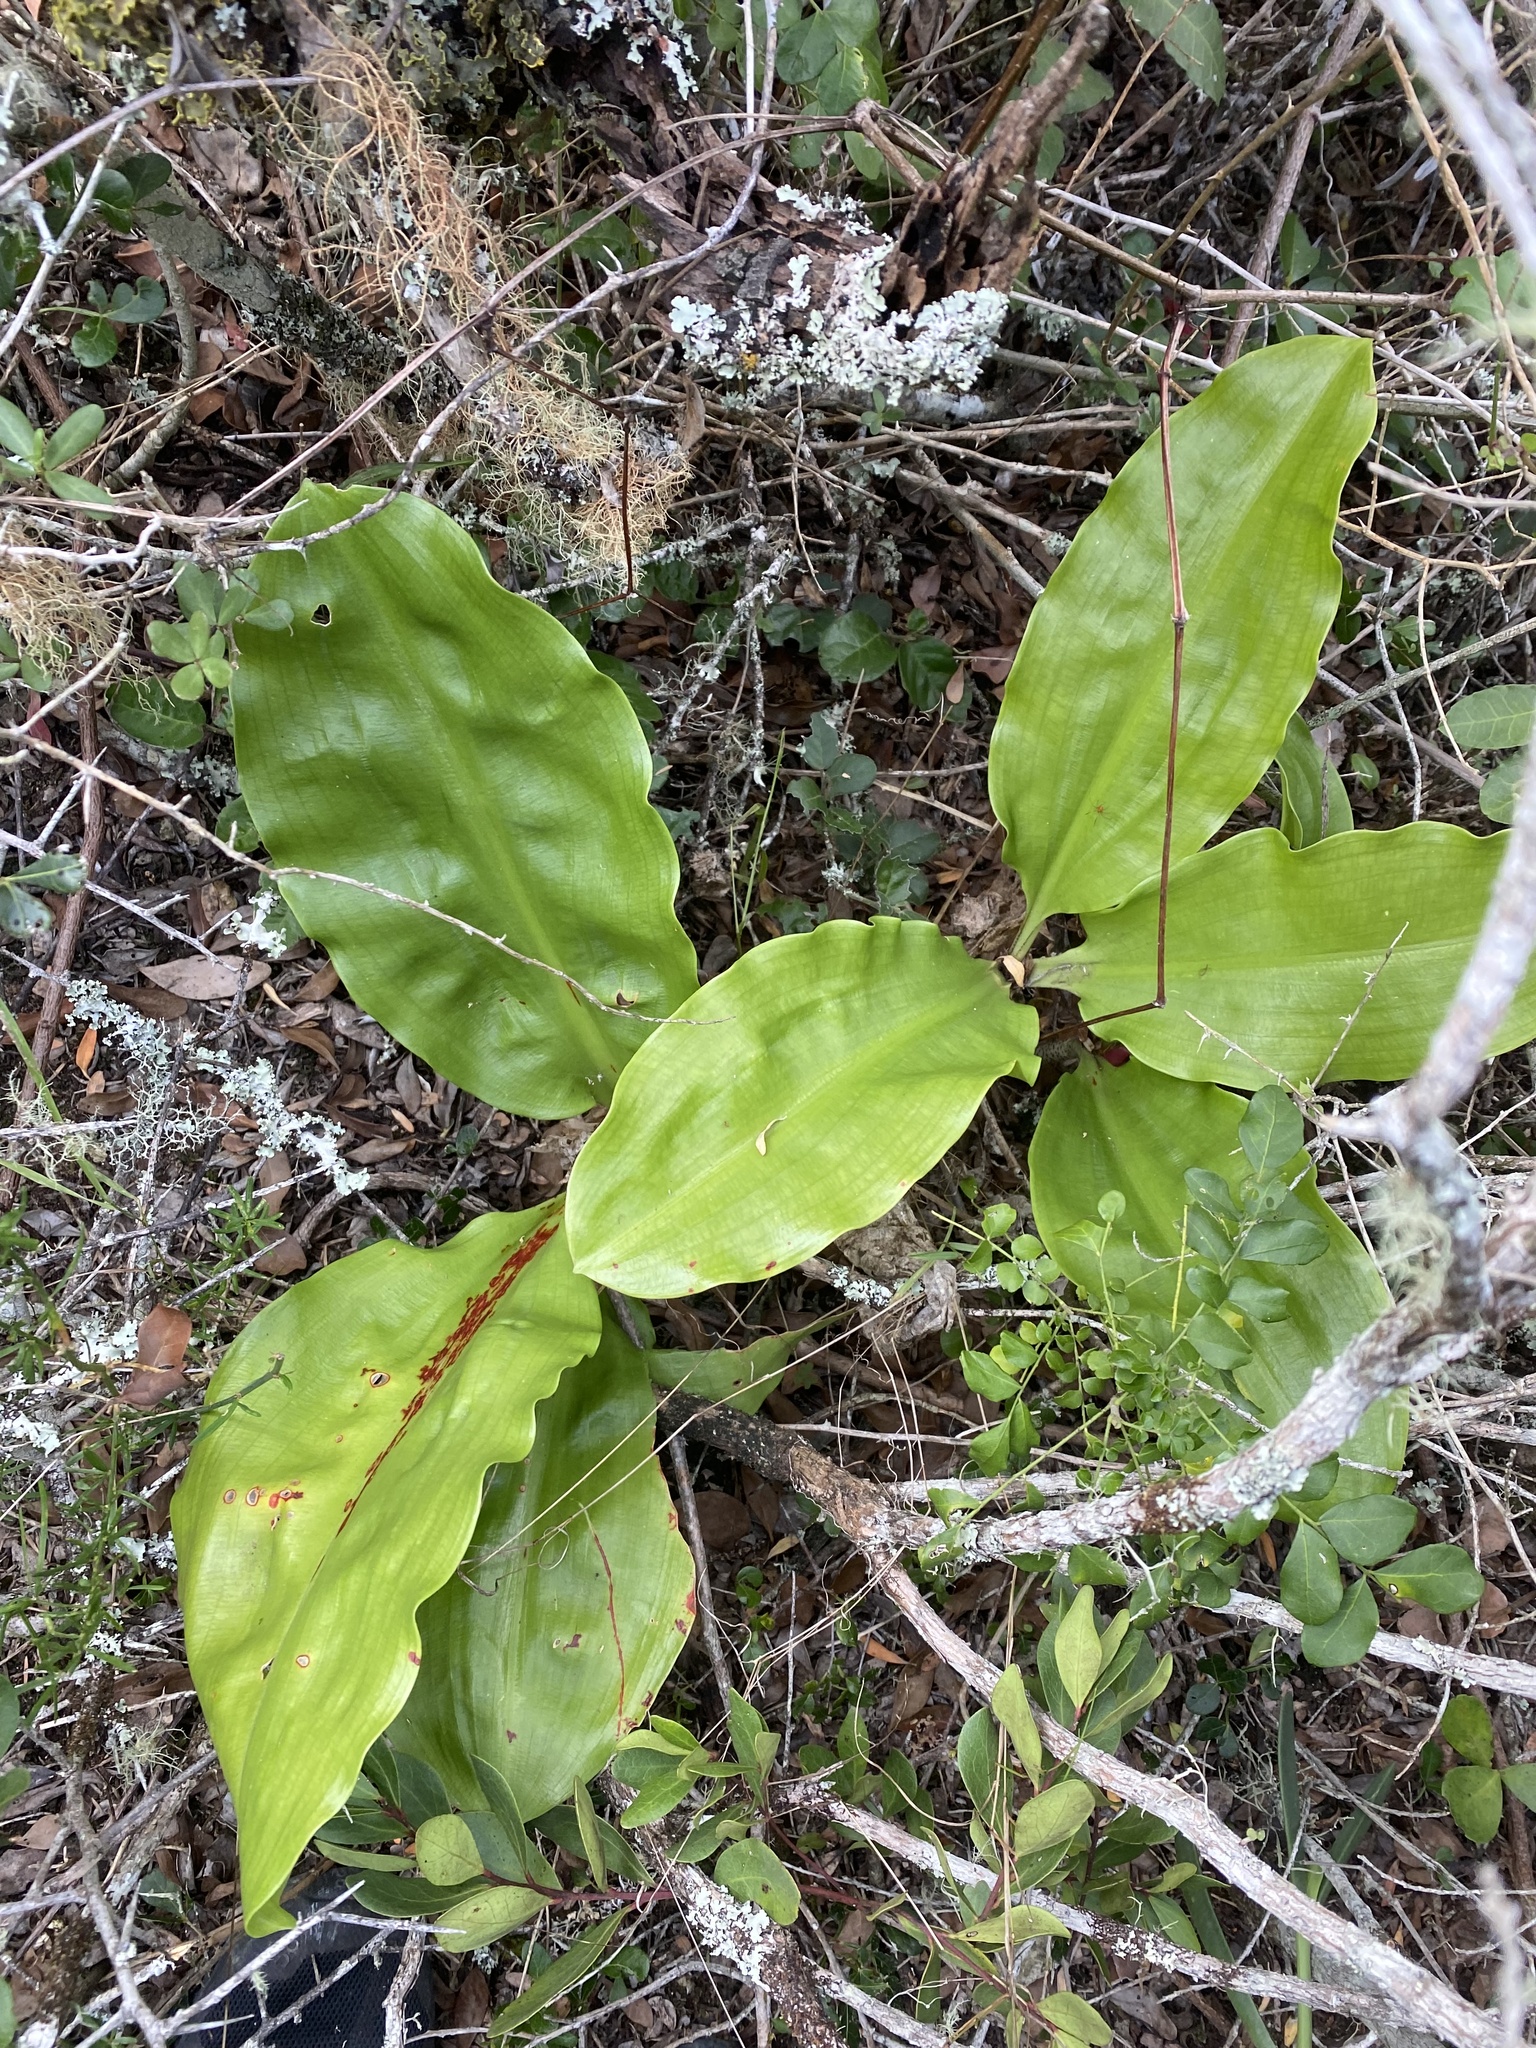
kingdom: Plantae
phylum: Tracheophyta
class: Liliopsida
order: Asparagales
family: Amaryllidaceae
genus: Scadoxus
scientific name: Scadoxus puniceus
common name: Royal-paintbrush
